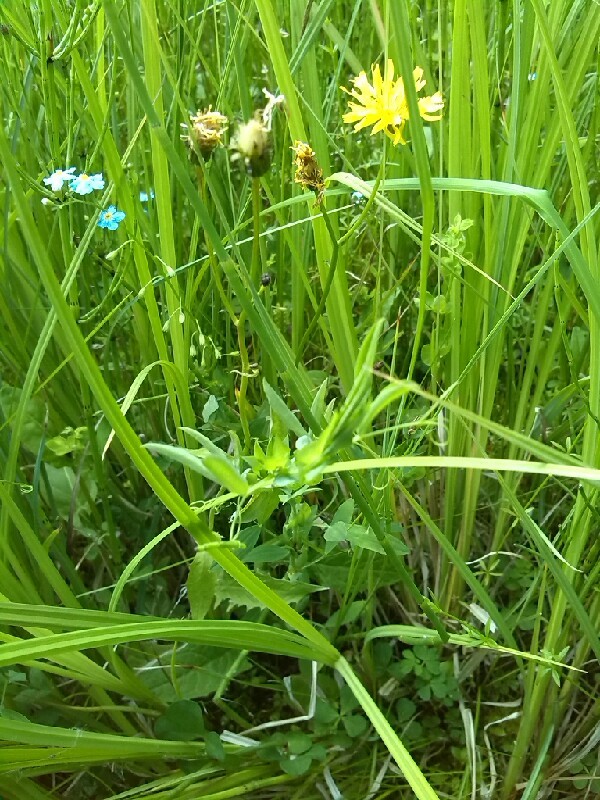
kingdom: Plantae
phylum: Tracheophyta
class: Magnoliopsida
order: Asterales
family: Asteraceae
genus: Crepis
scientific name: Crepis paludosa
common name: Marsh hawk's-beard
